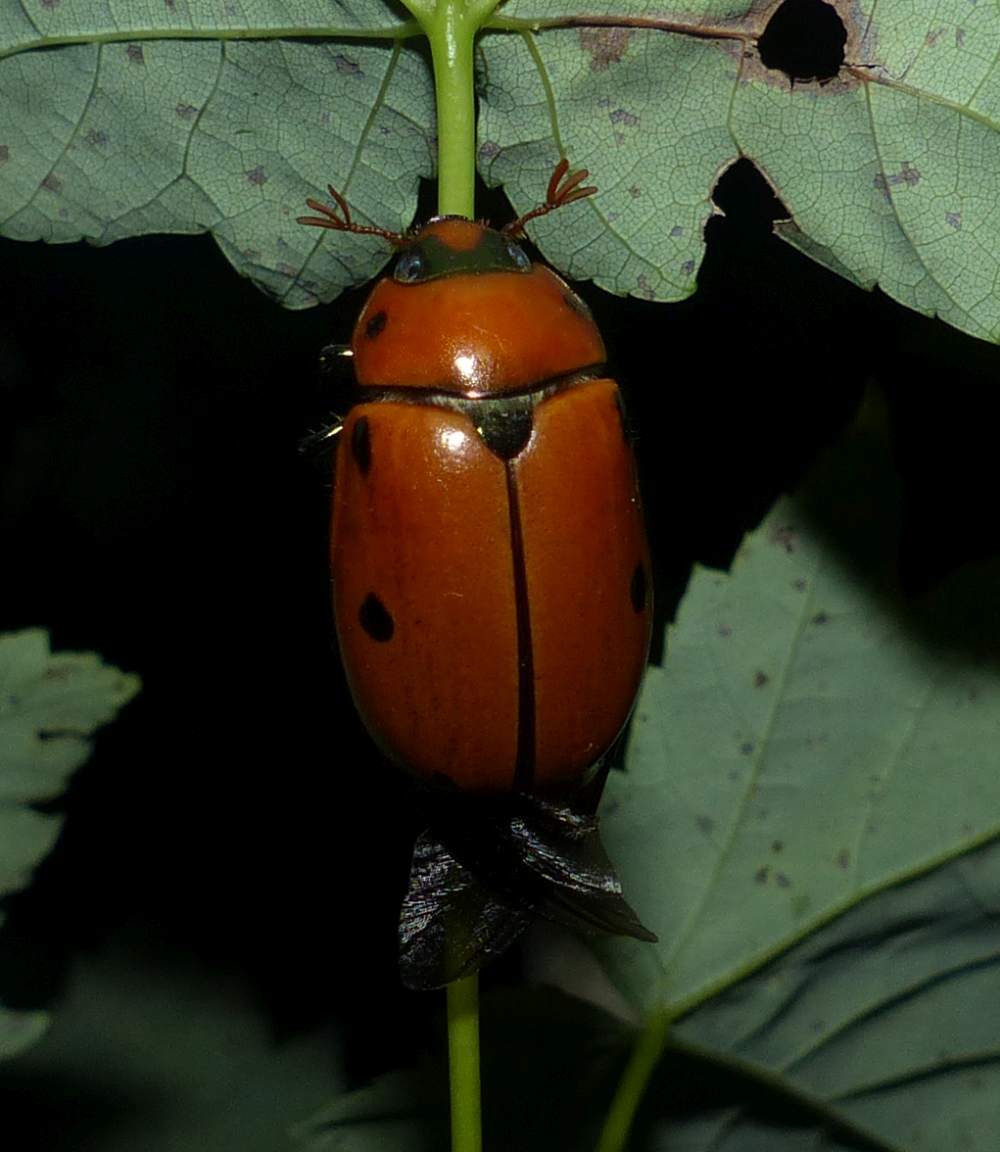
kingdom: Animalia
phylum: Arthropoda
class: Insecta
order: Coleoptera
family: Scarabaeidae
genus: Pelidnota
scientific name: Pelidnota punctata
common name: Grapevine beetle
